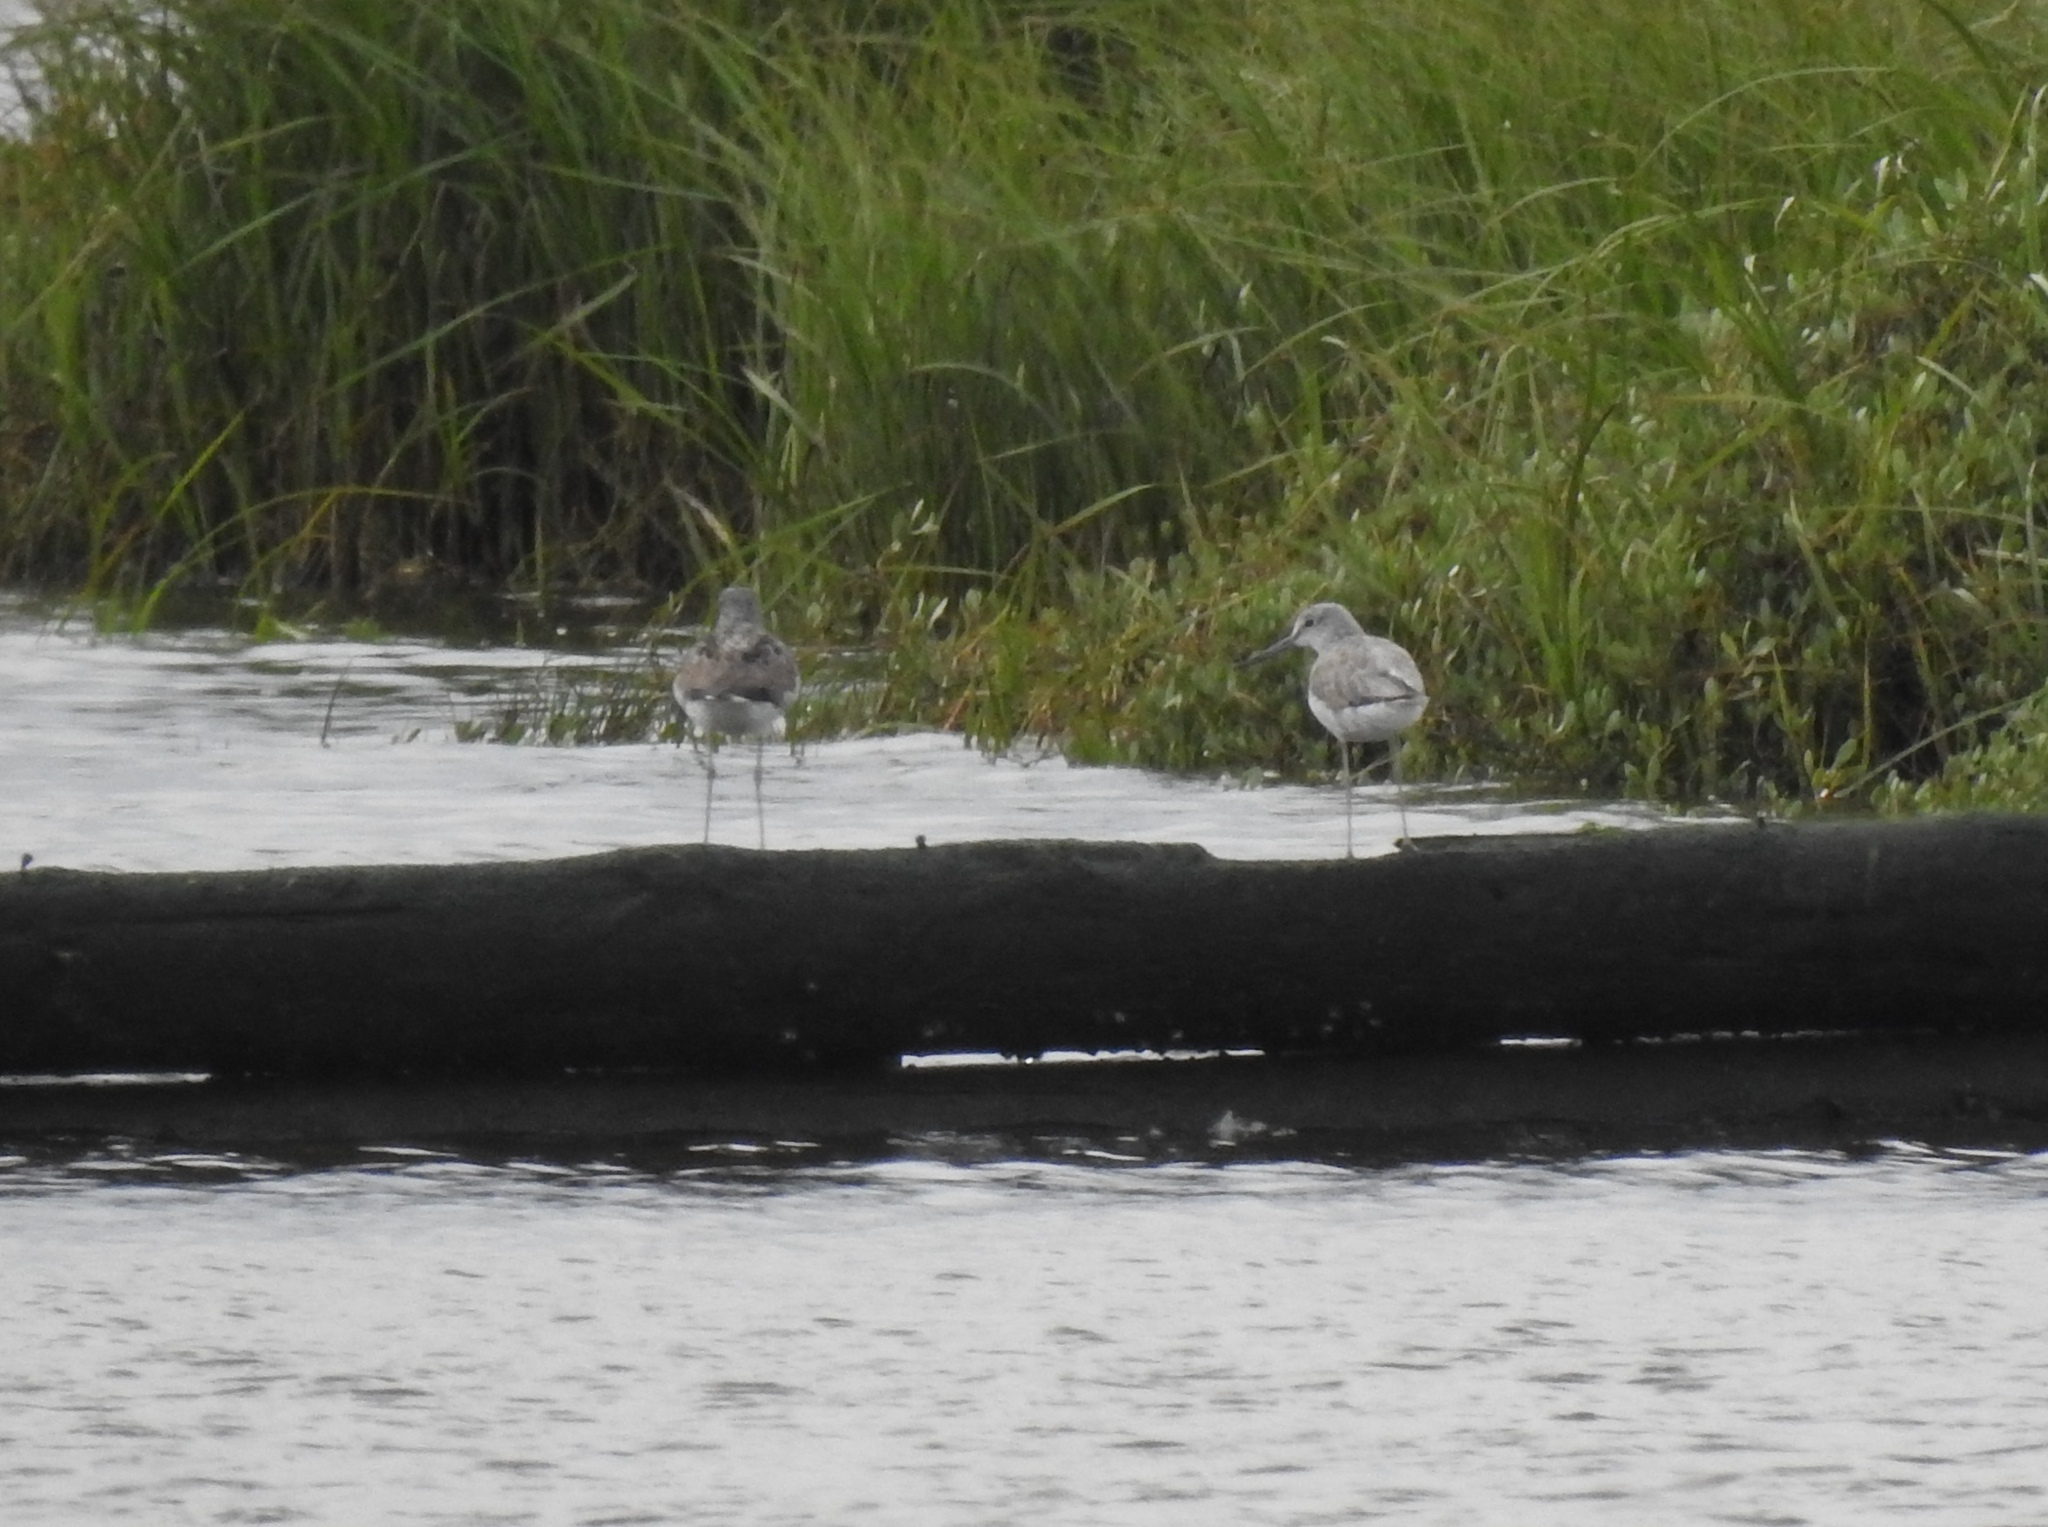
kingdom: Animalia
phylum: Chordata
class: Aves
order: Charadriiformes
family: Scolopacidae
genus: Tringa
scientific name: Tringa nebularia
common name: Common greenshank
